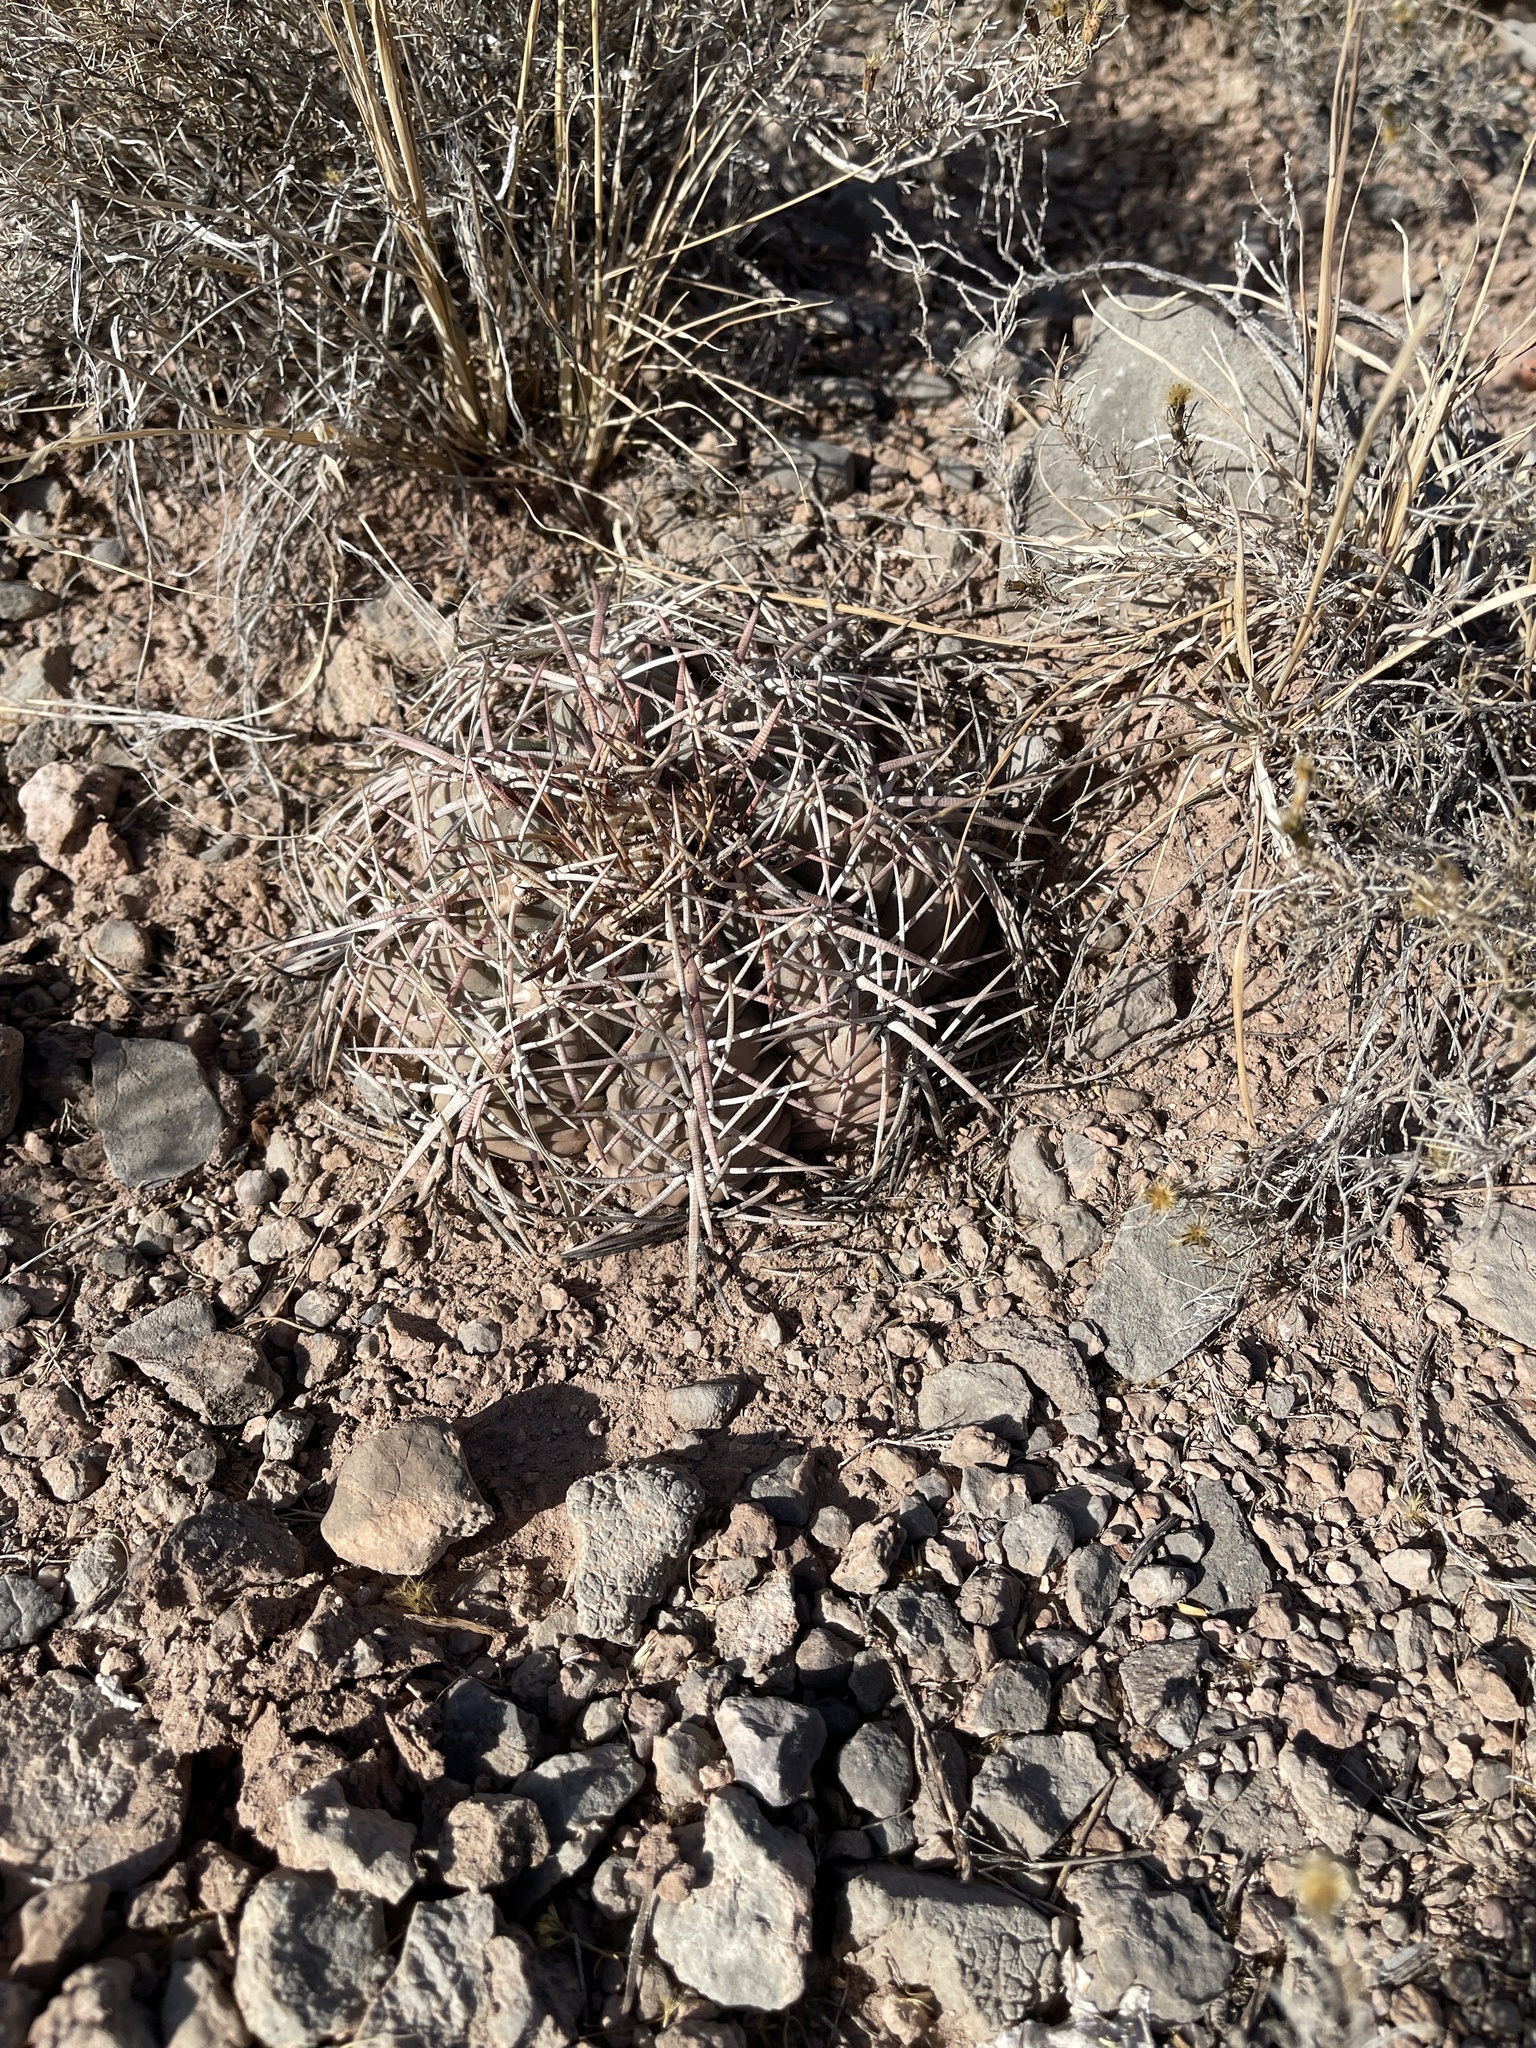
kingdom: Plantae
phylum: Tracheophyta
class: Magnoliopsida
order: Caryophyllales
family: Cactaceae
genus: Echinocactus
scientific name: Echinocactus horizonthalonius
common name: Devilshead
